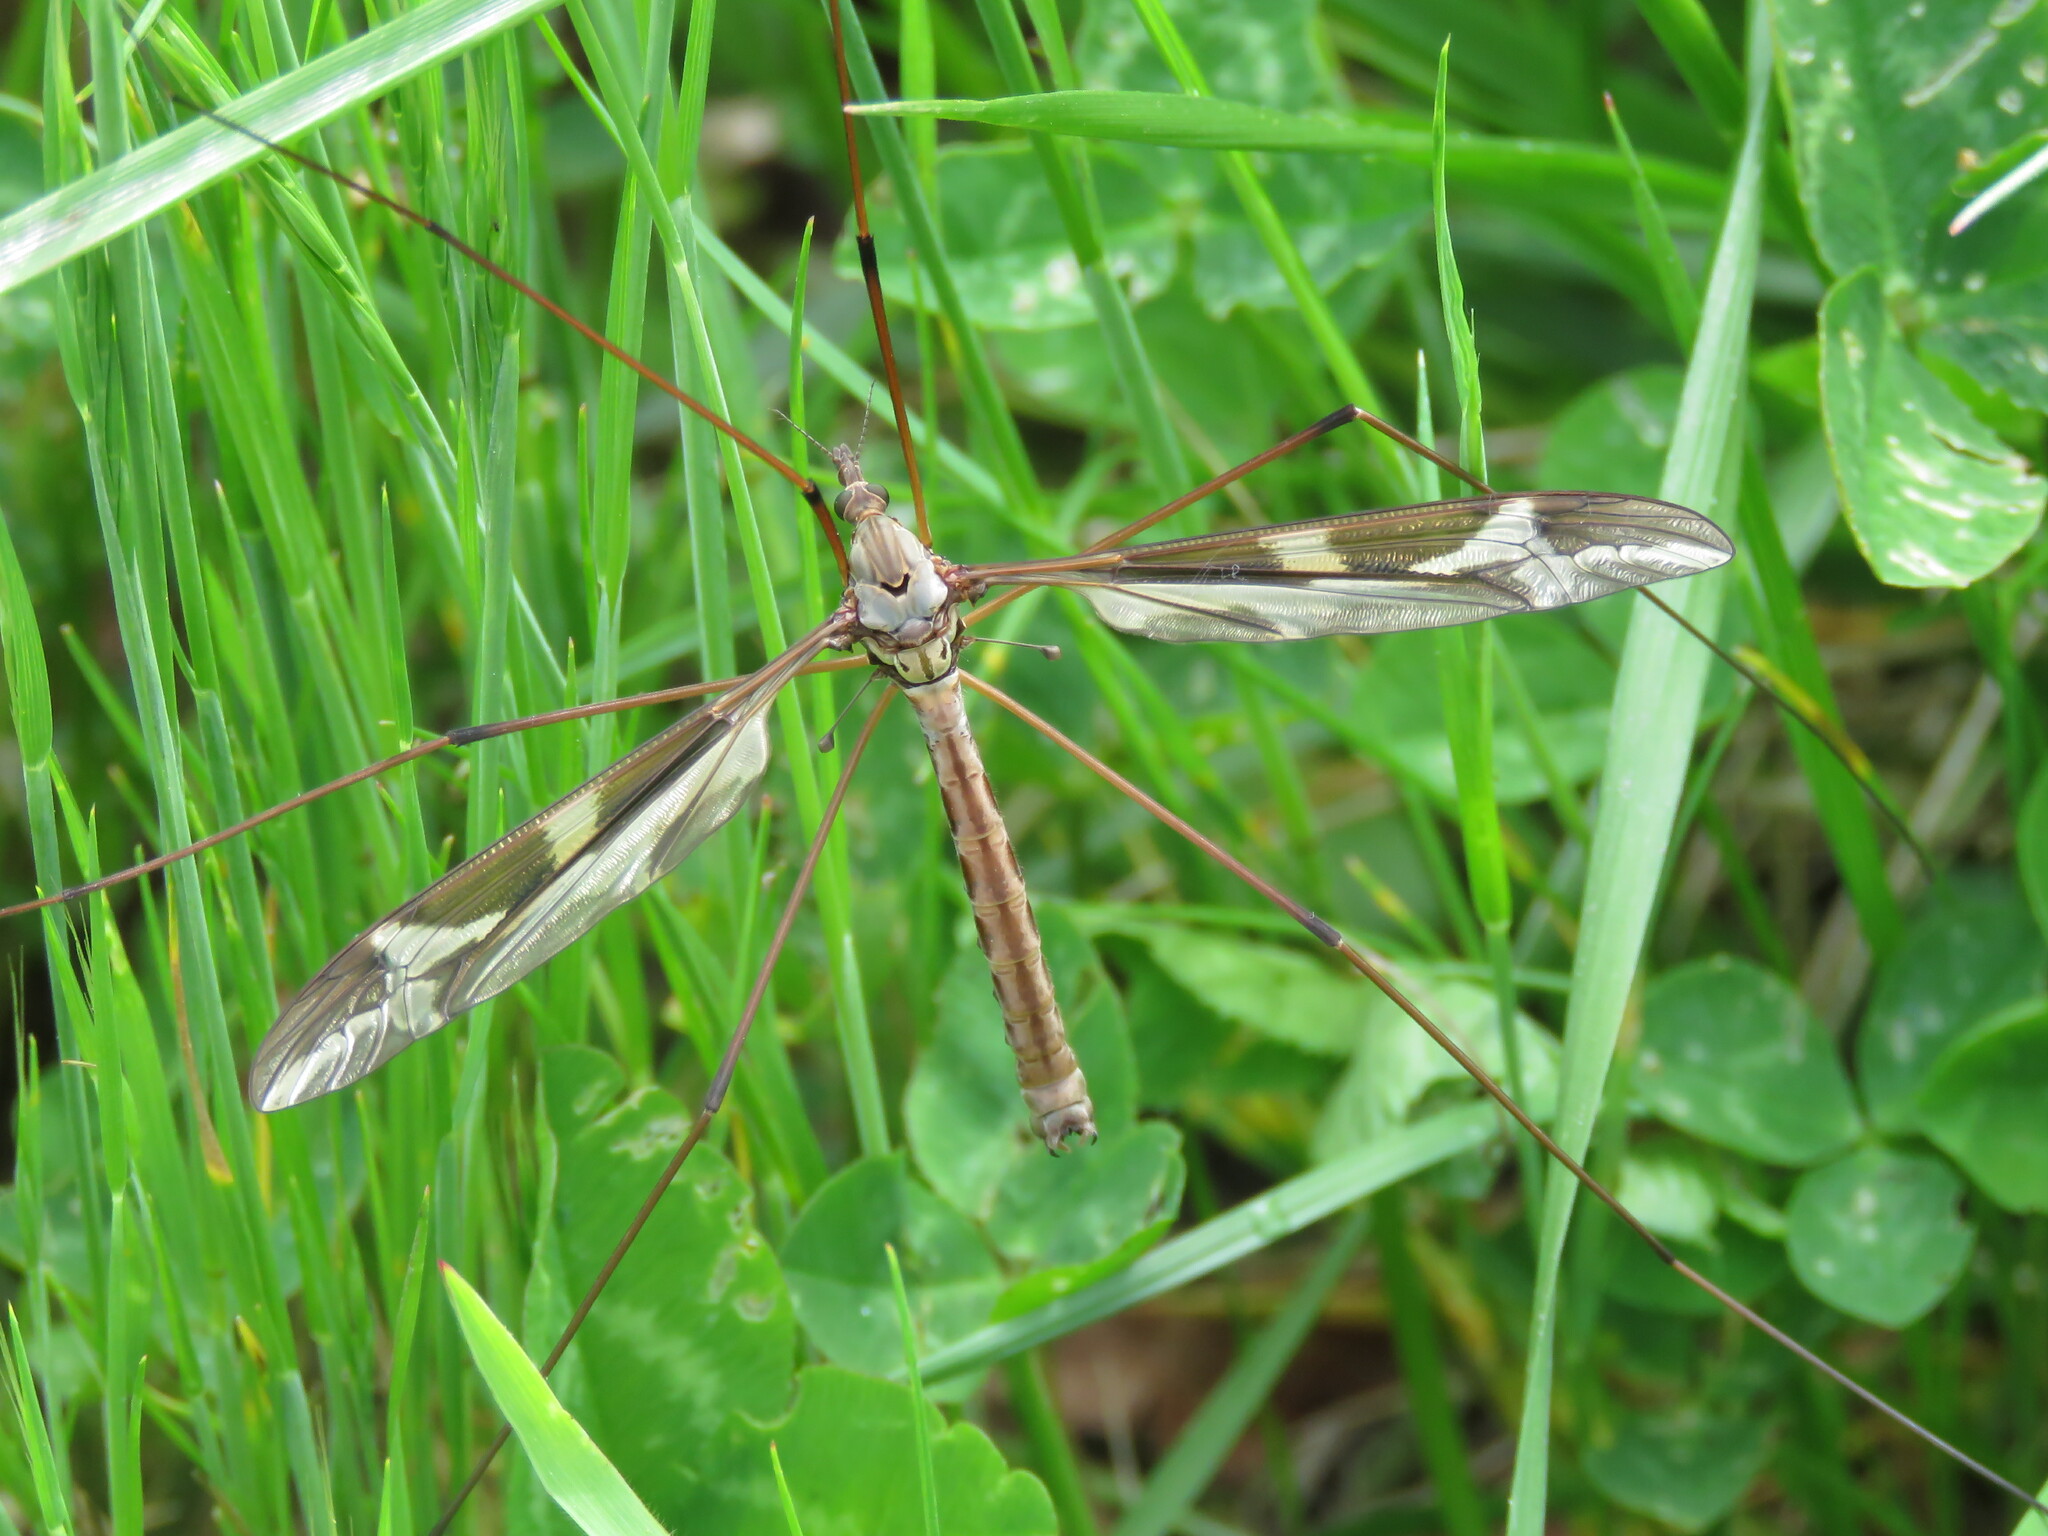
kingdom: Animalia
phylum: Arthropoda
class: Insecta
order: Diptera
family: Tipulidae
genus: Tipula
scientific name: Tipula paludosa
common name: European cranefly
